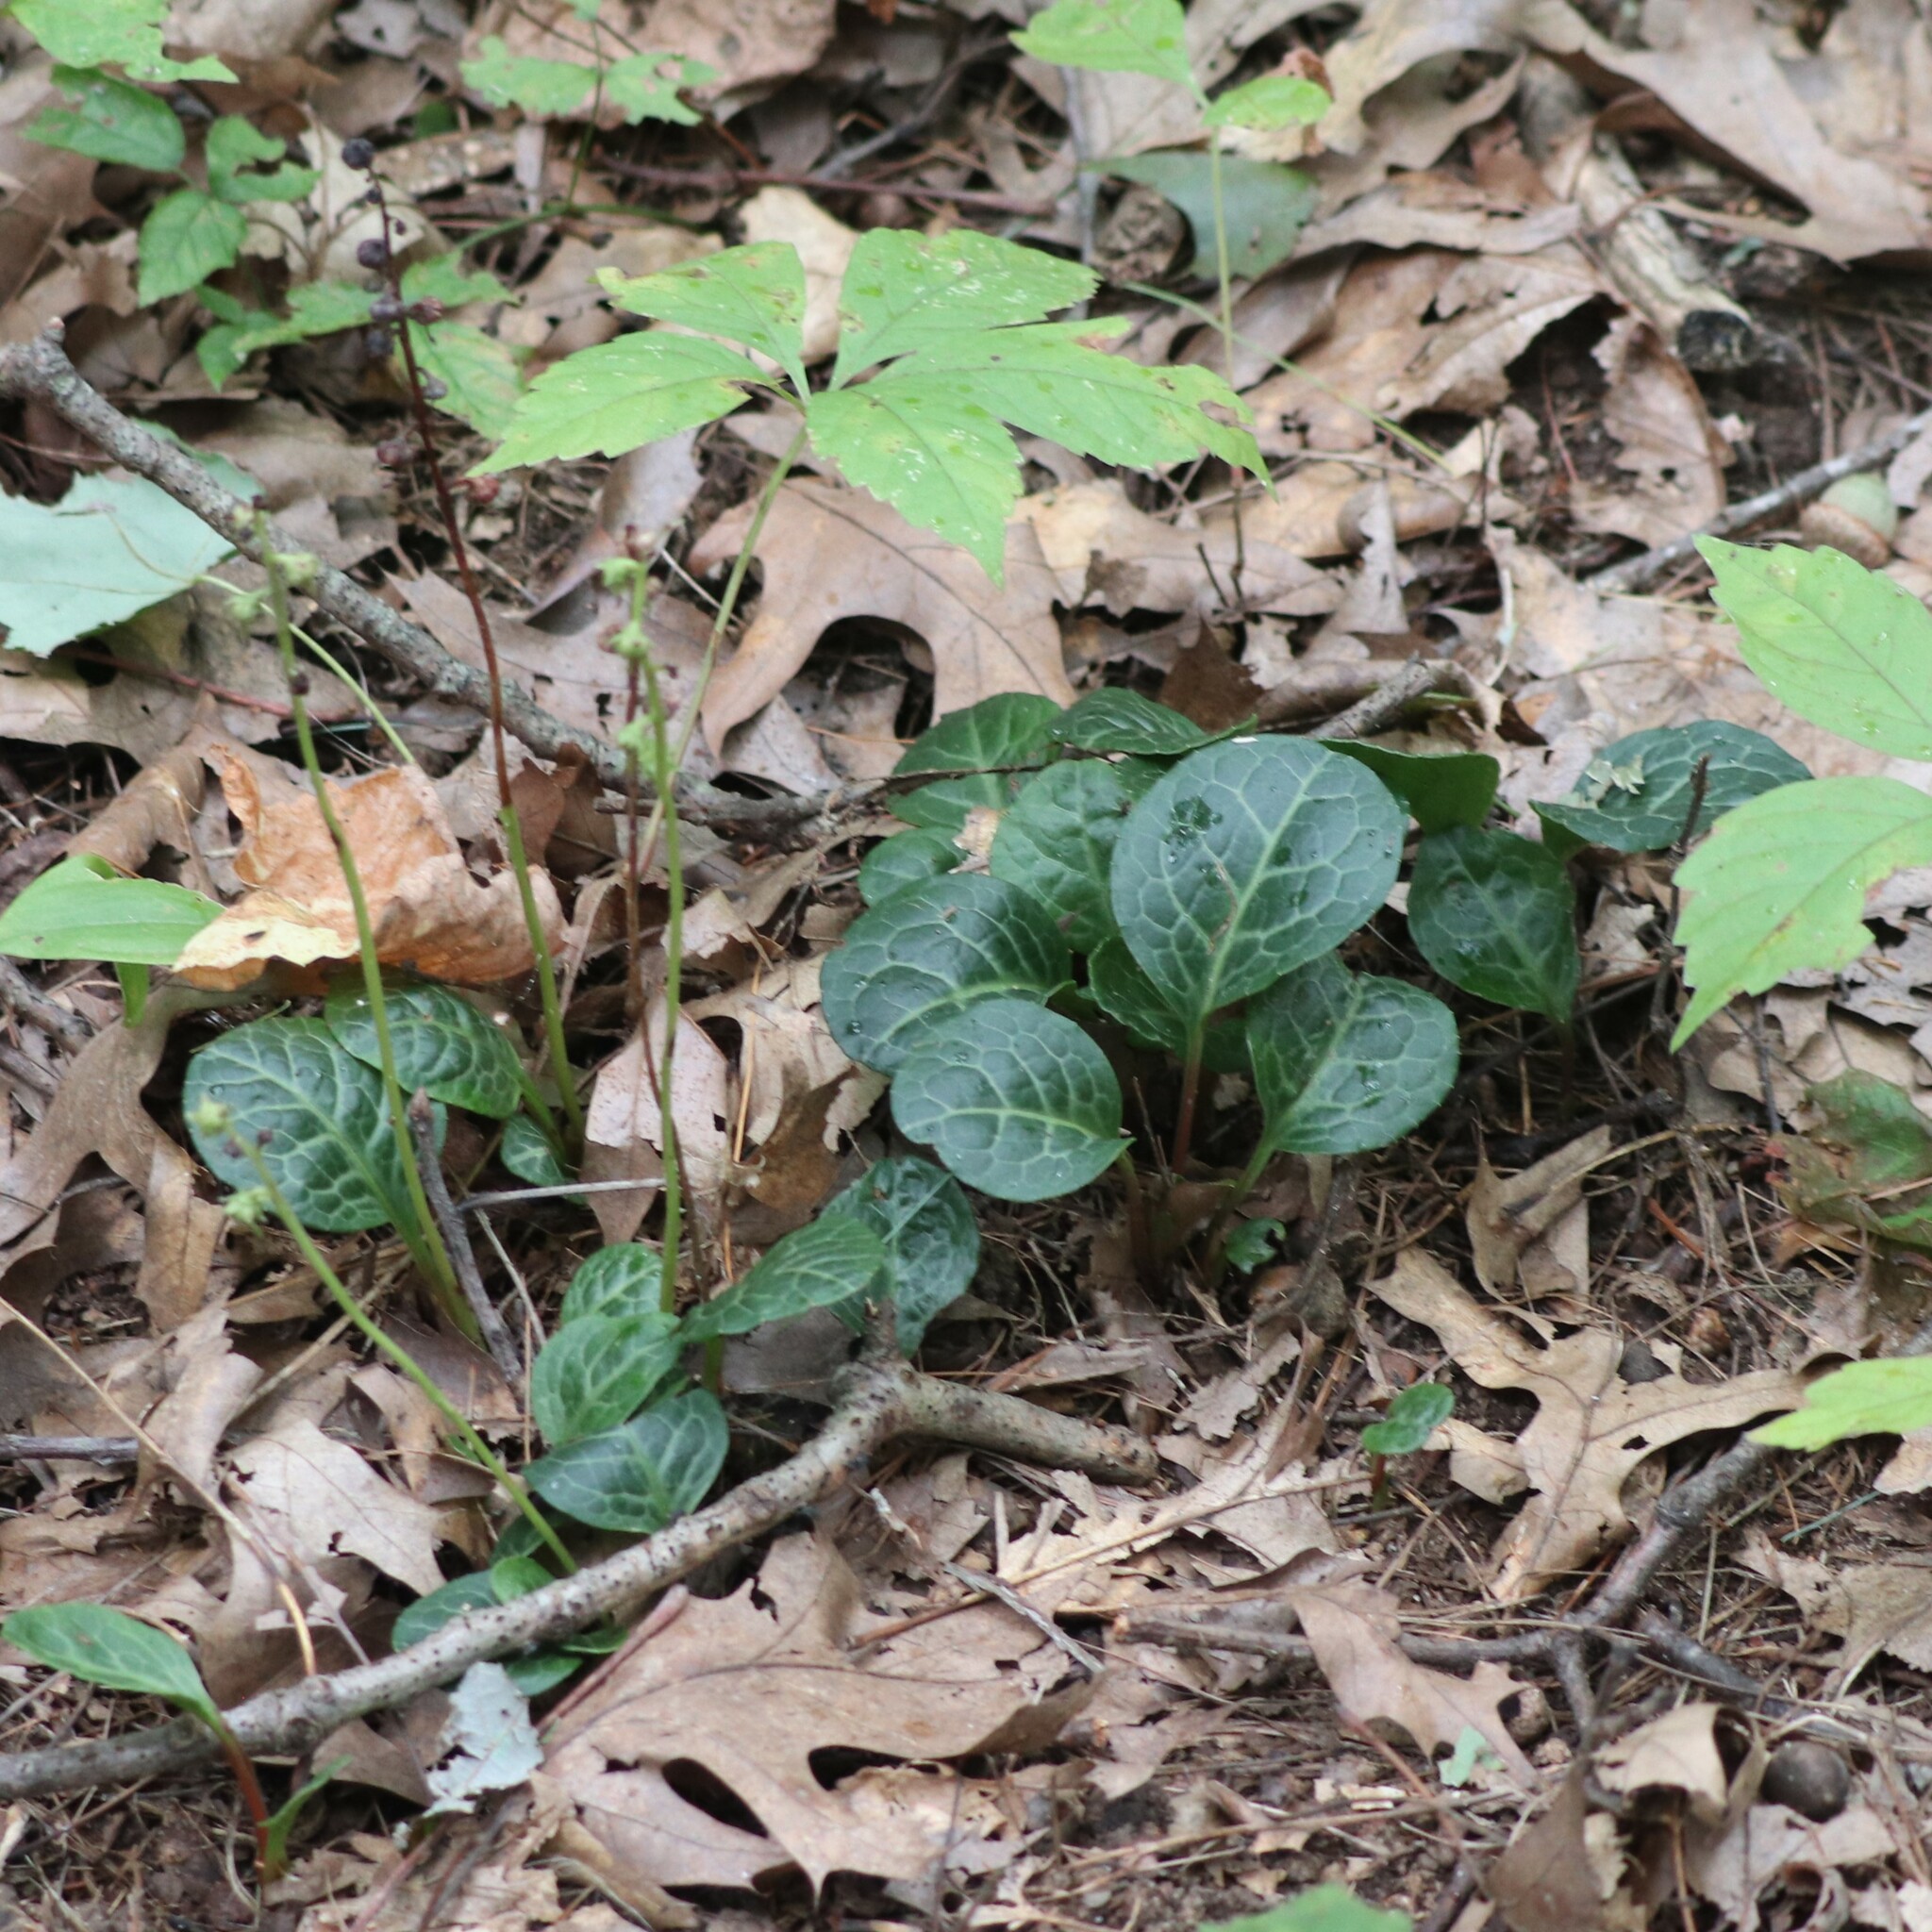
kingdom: Plantae
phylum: Tracheophyta
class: Magnoliopsida
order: Ericales
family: Ericaceae
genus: Pyrola
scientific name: Pyrola americana
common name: American wintergreen
